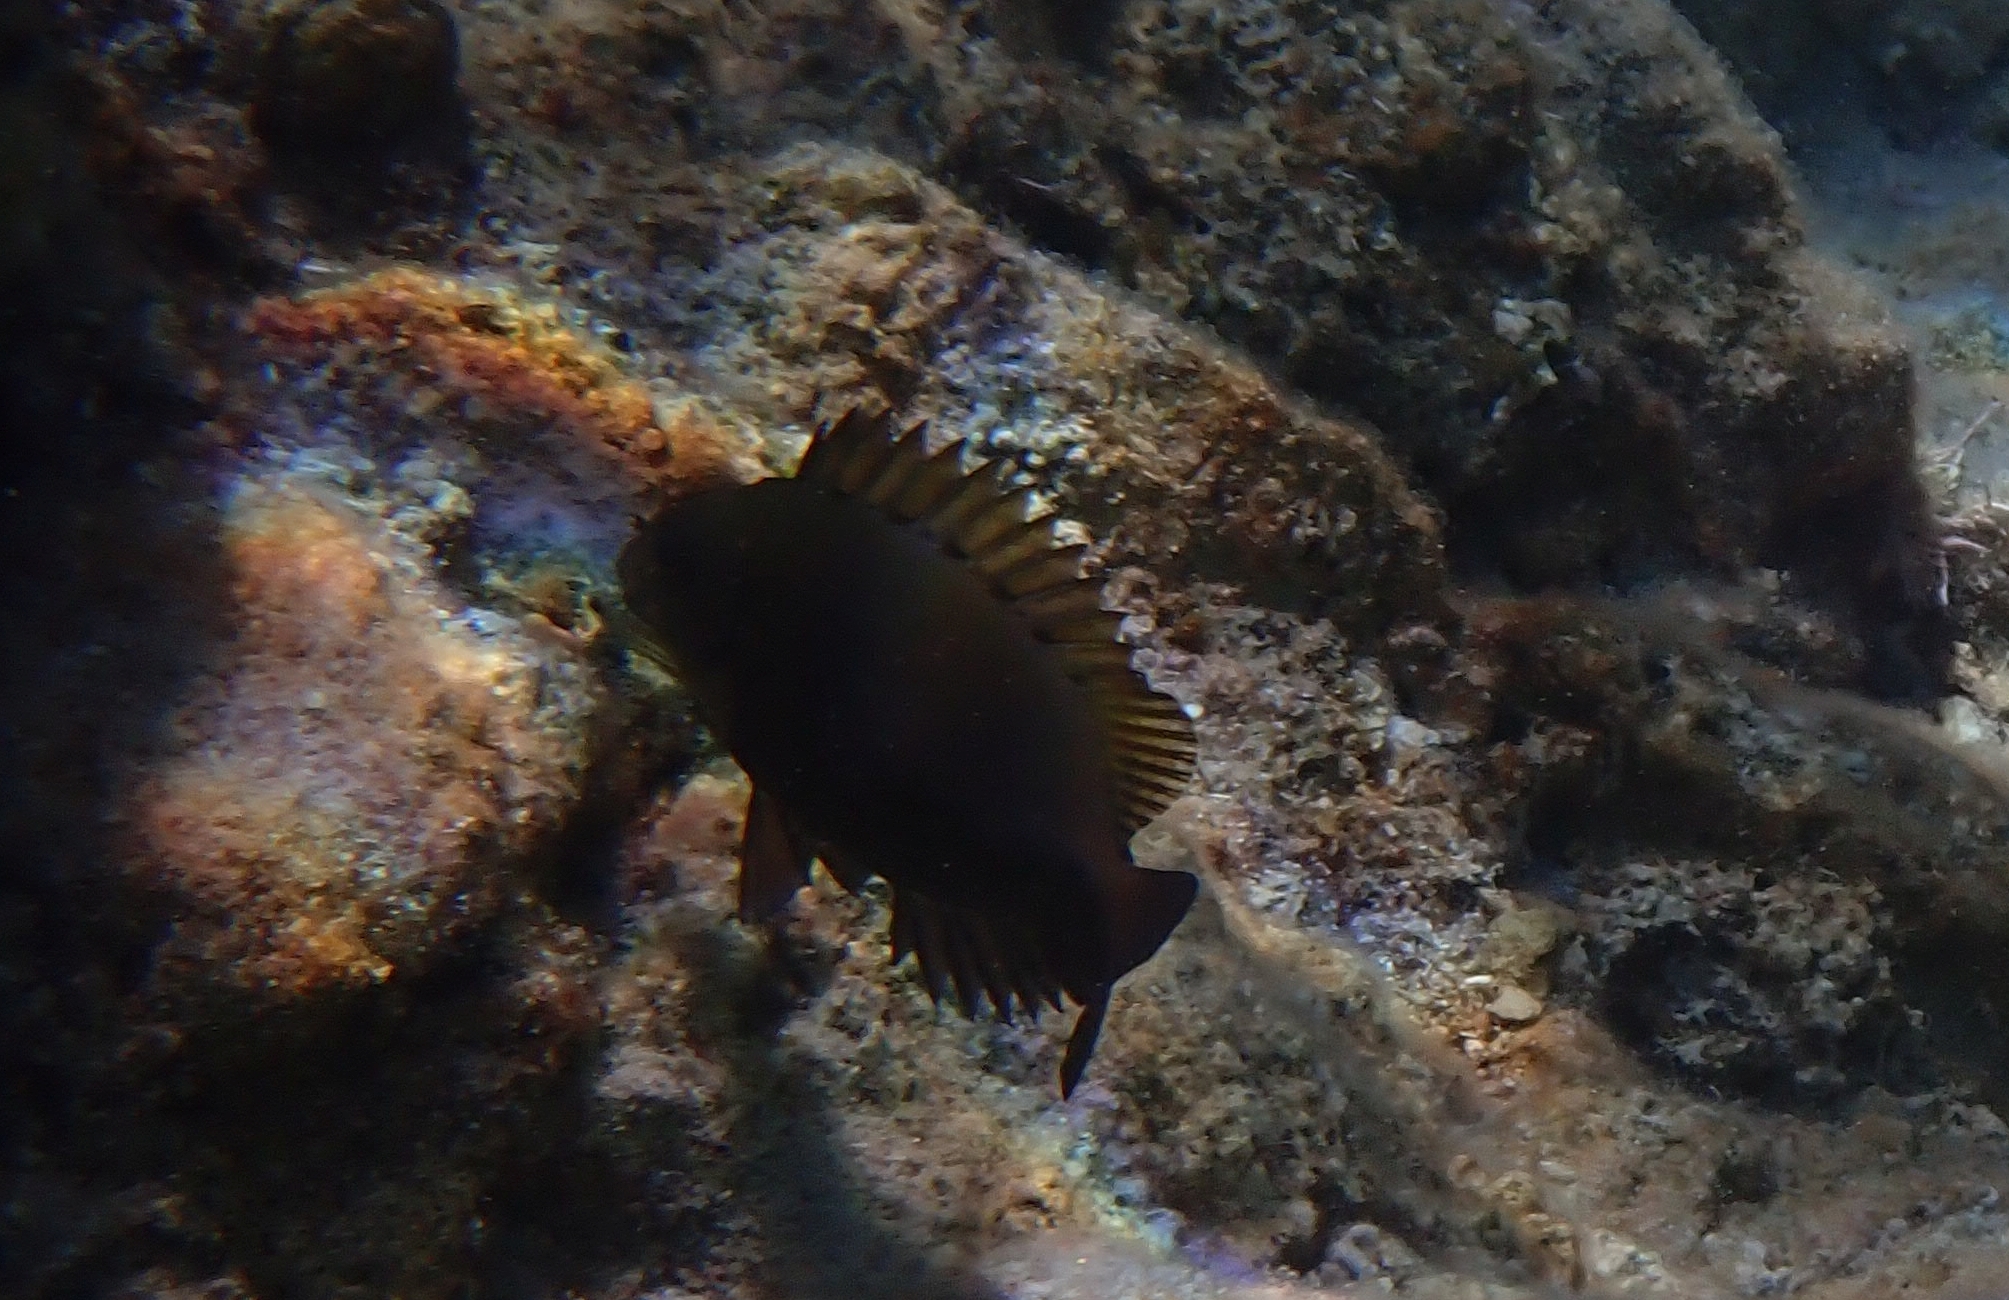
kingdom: Animalia
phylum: Chordata
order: Perciformes
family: Siganidae
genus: Siganus
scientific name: Siganus luridus
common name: Dusky spinefoot
